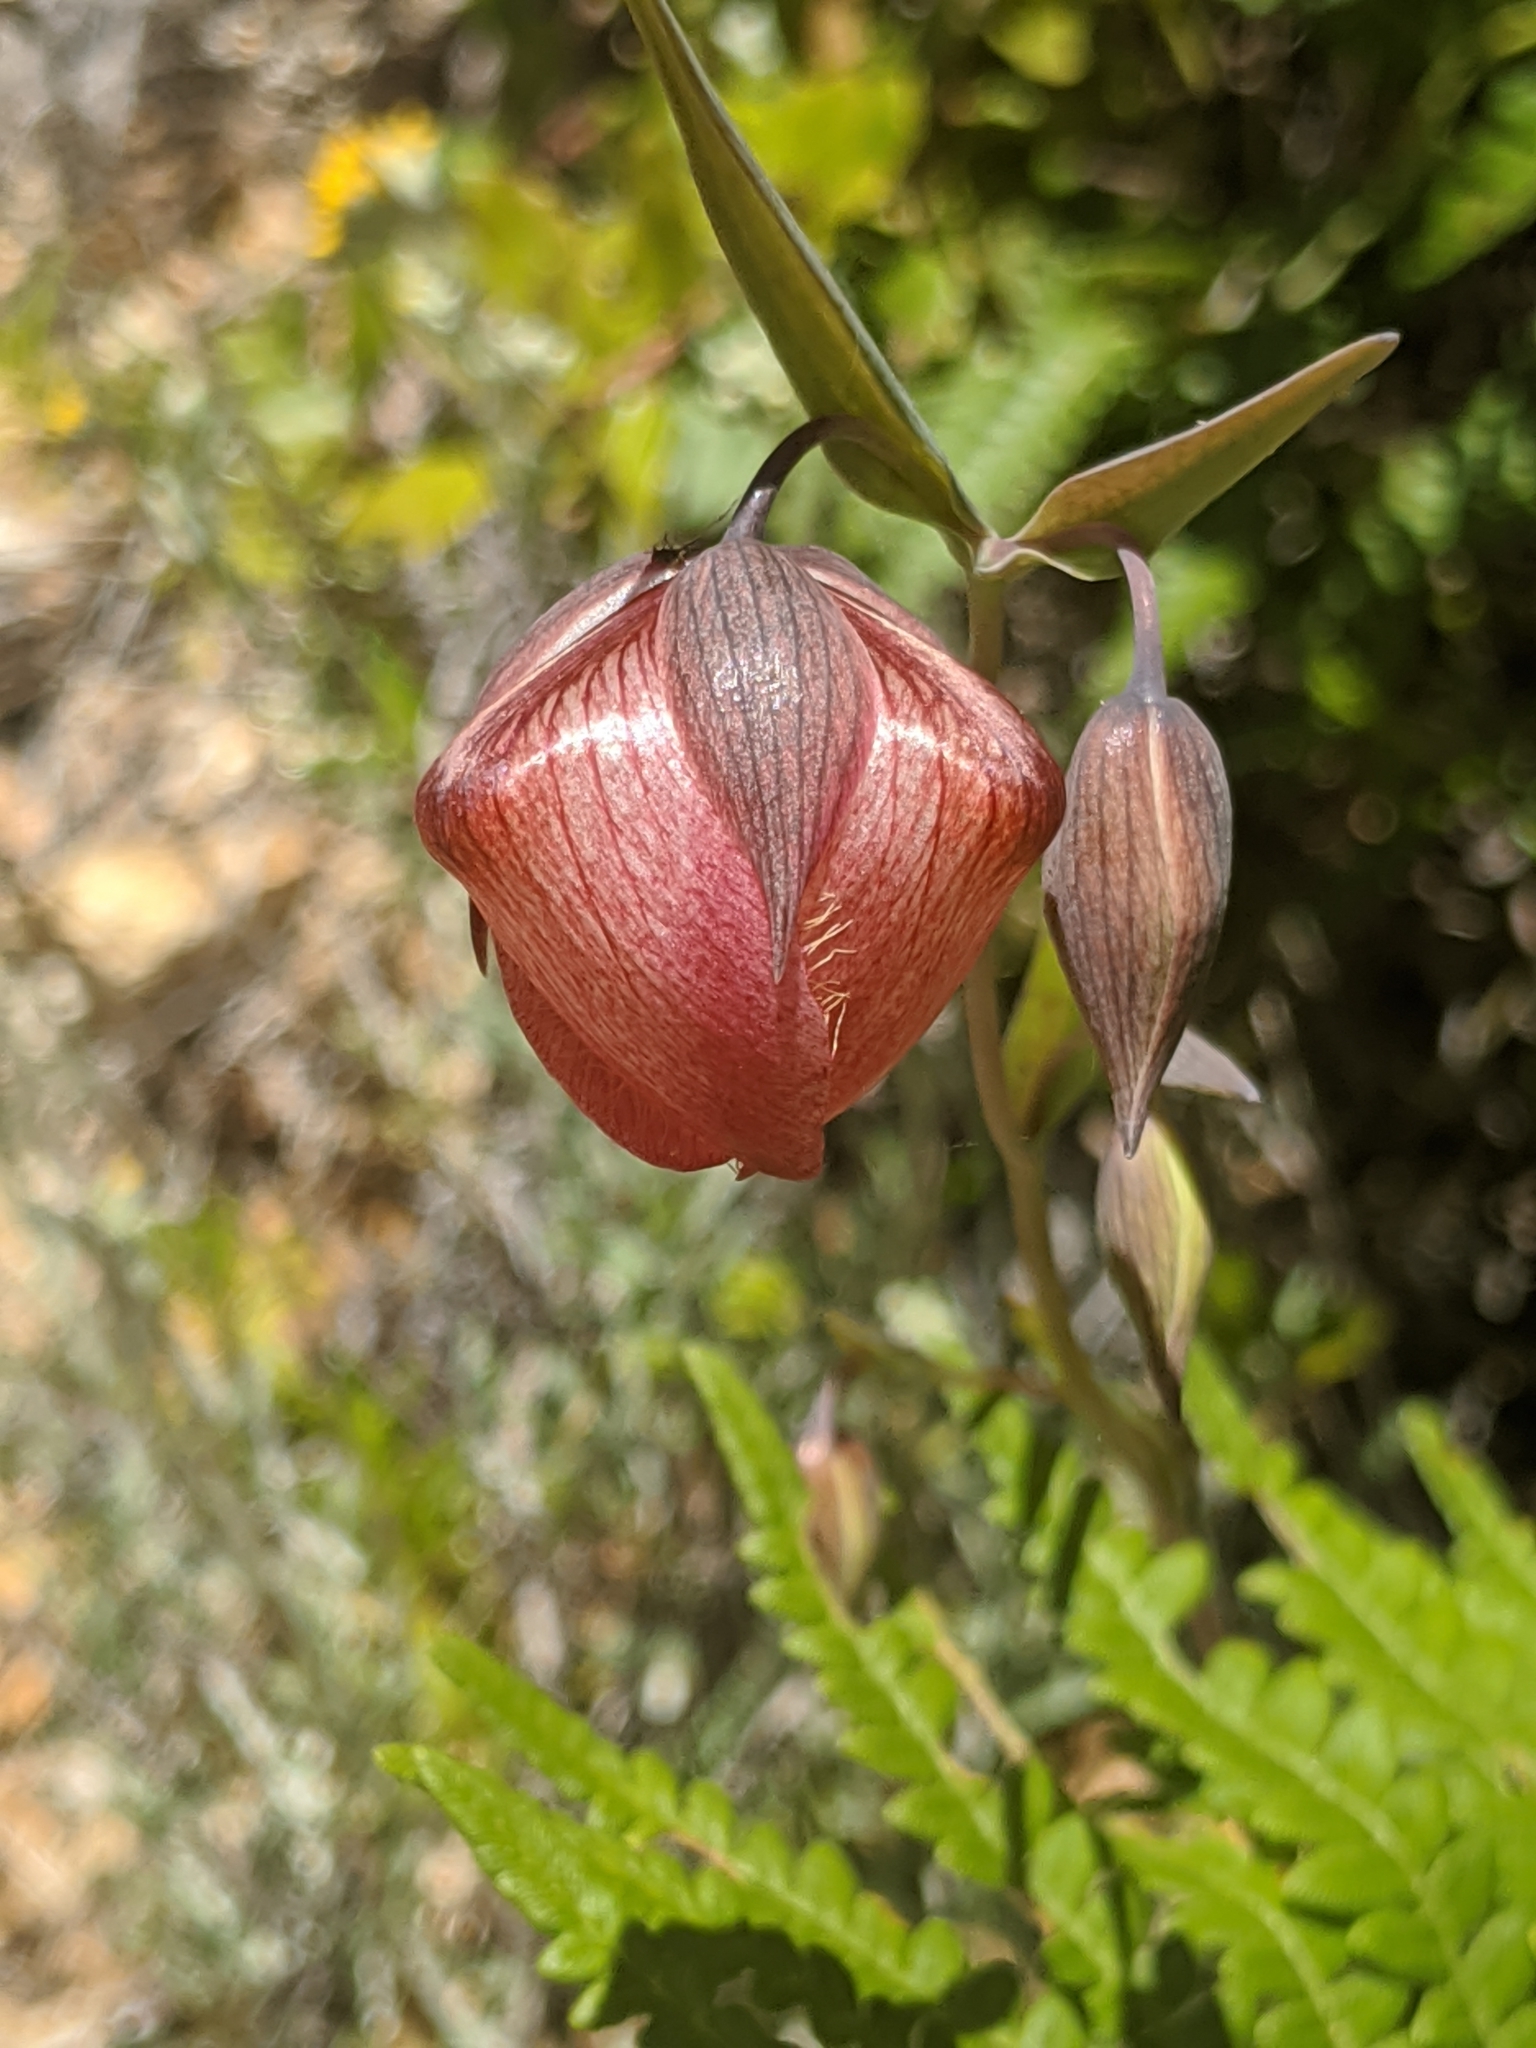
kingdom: Plantae
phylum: Tracheophyta
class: Liliopsida
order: Liliales
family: Liliaceae
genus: Calochortus
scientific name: Calochortus albus
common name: Fairy-lantern
